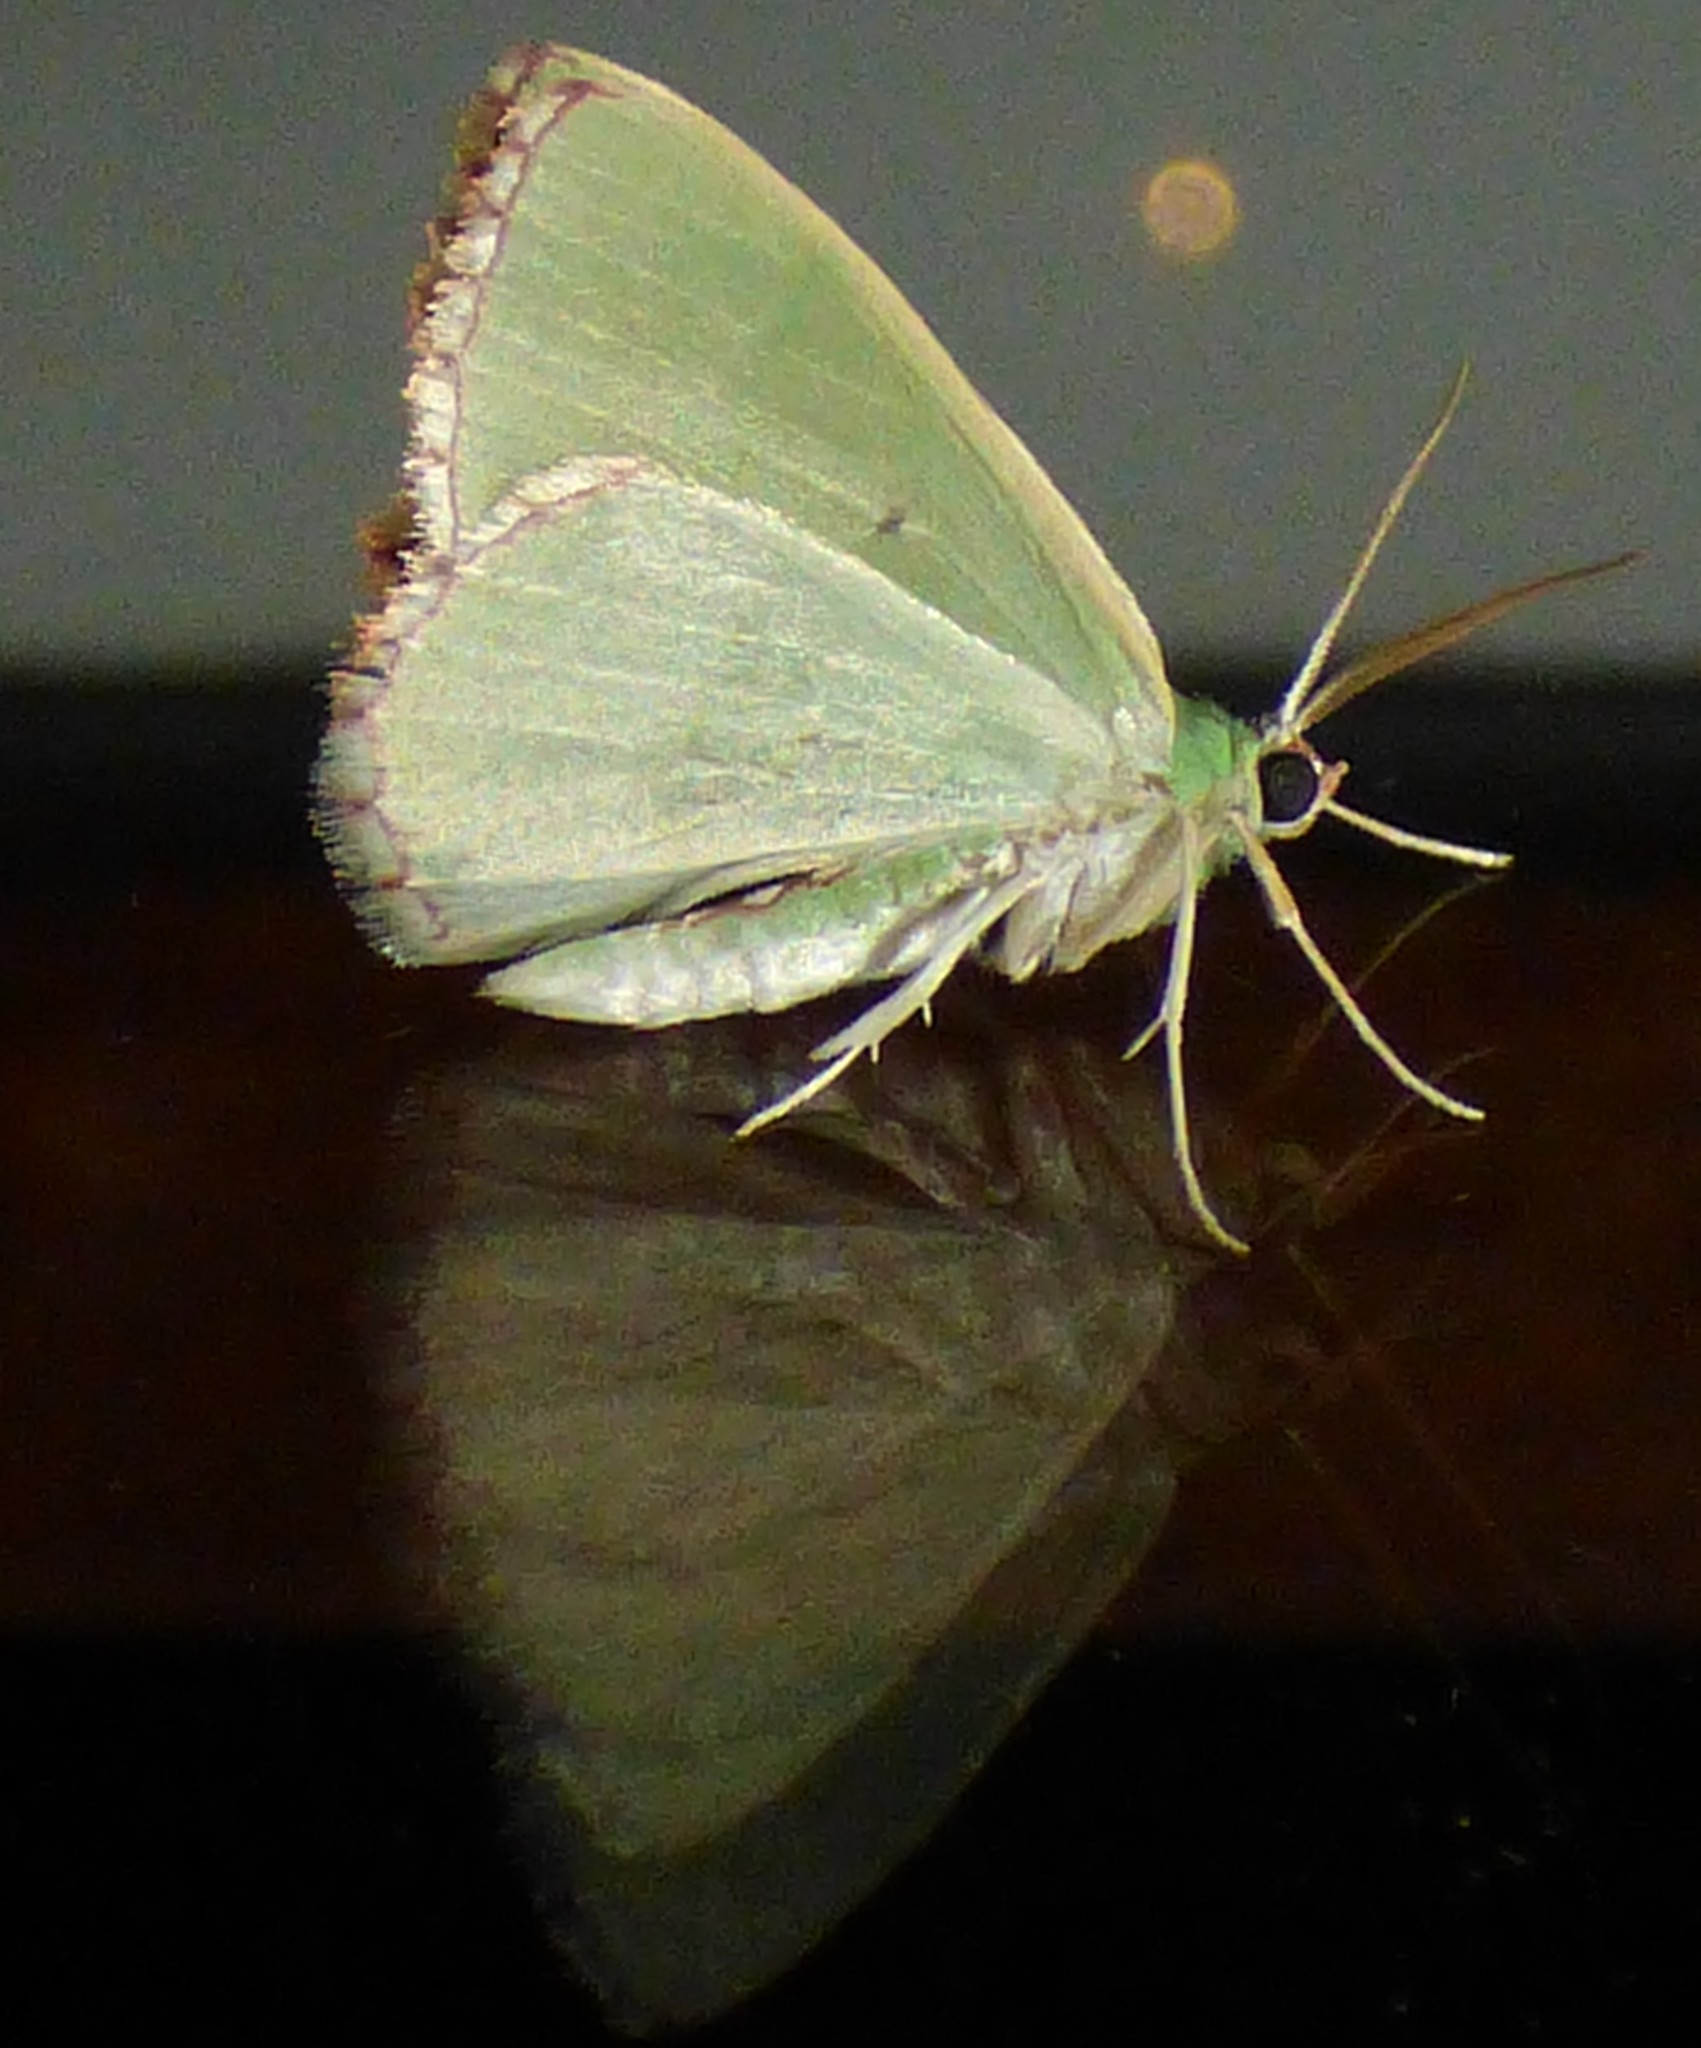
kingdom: Animalia
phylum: Arthropoda
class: Insecta
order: Lepidoptera
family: Geometridae
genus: Nemoria
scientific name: Nemoria
